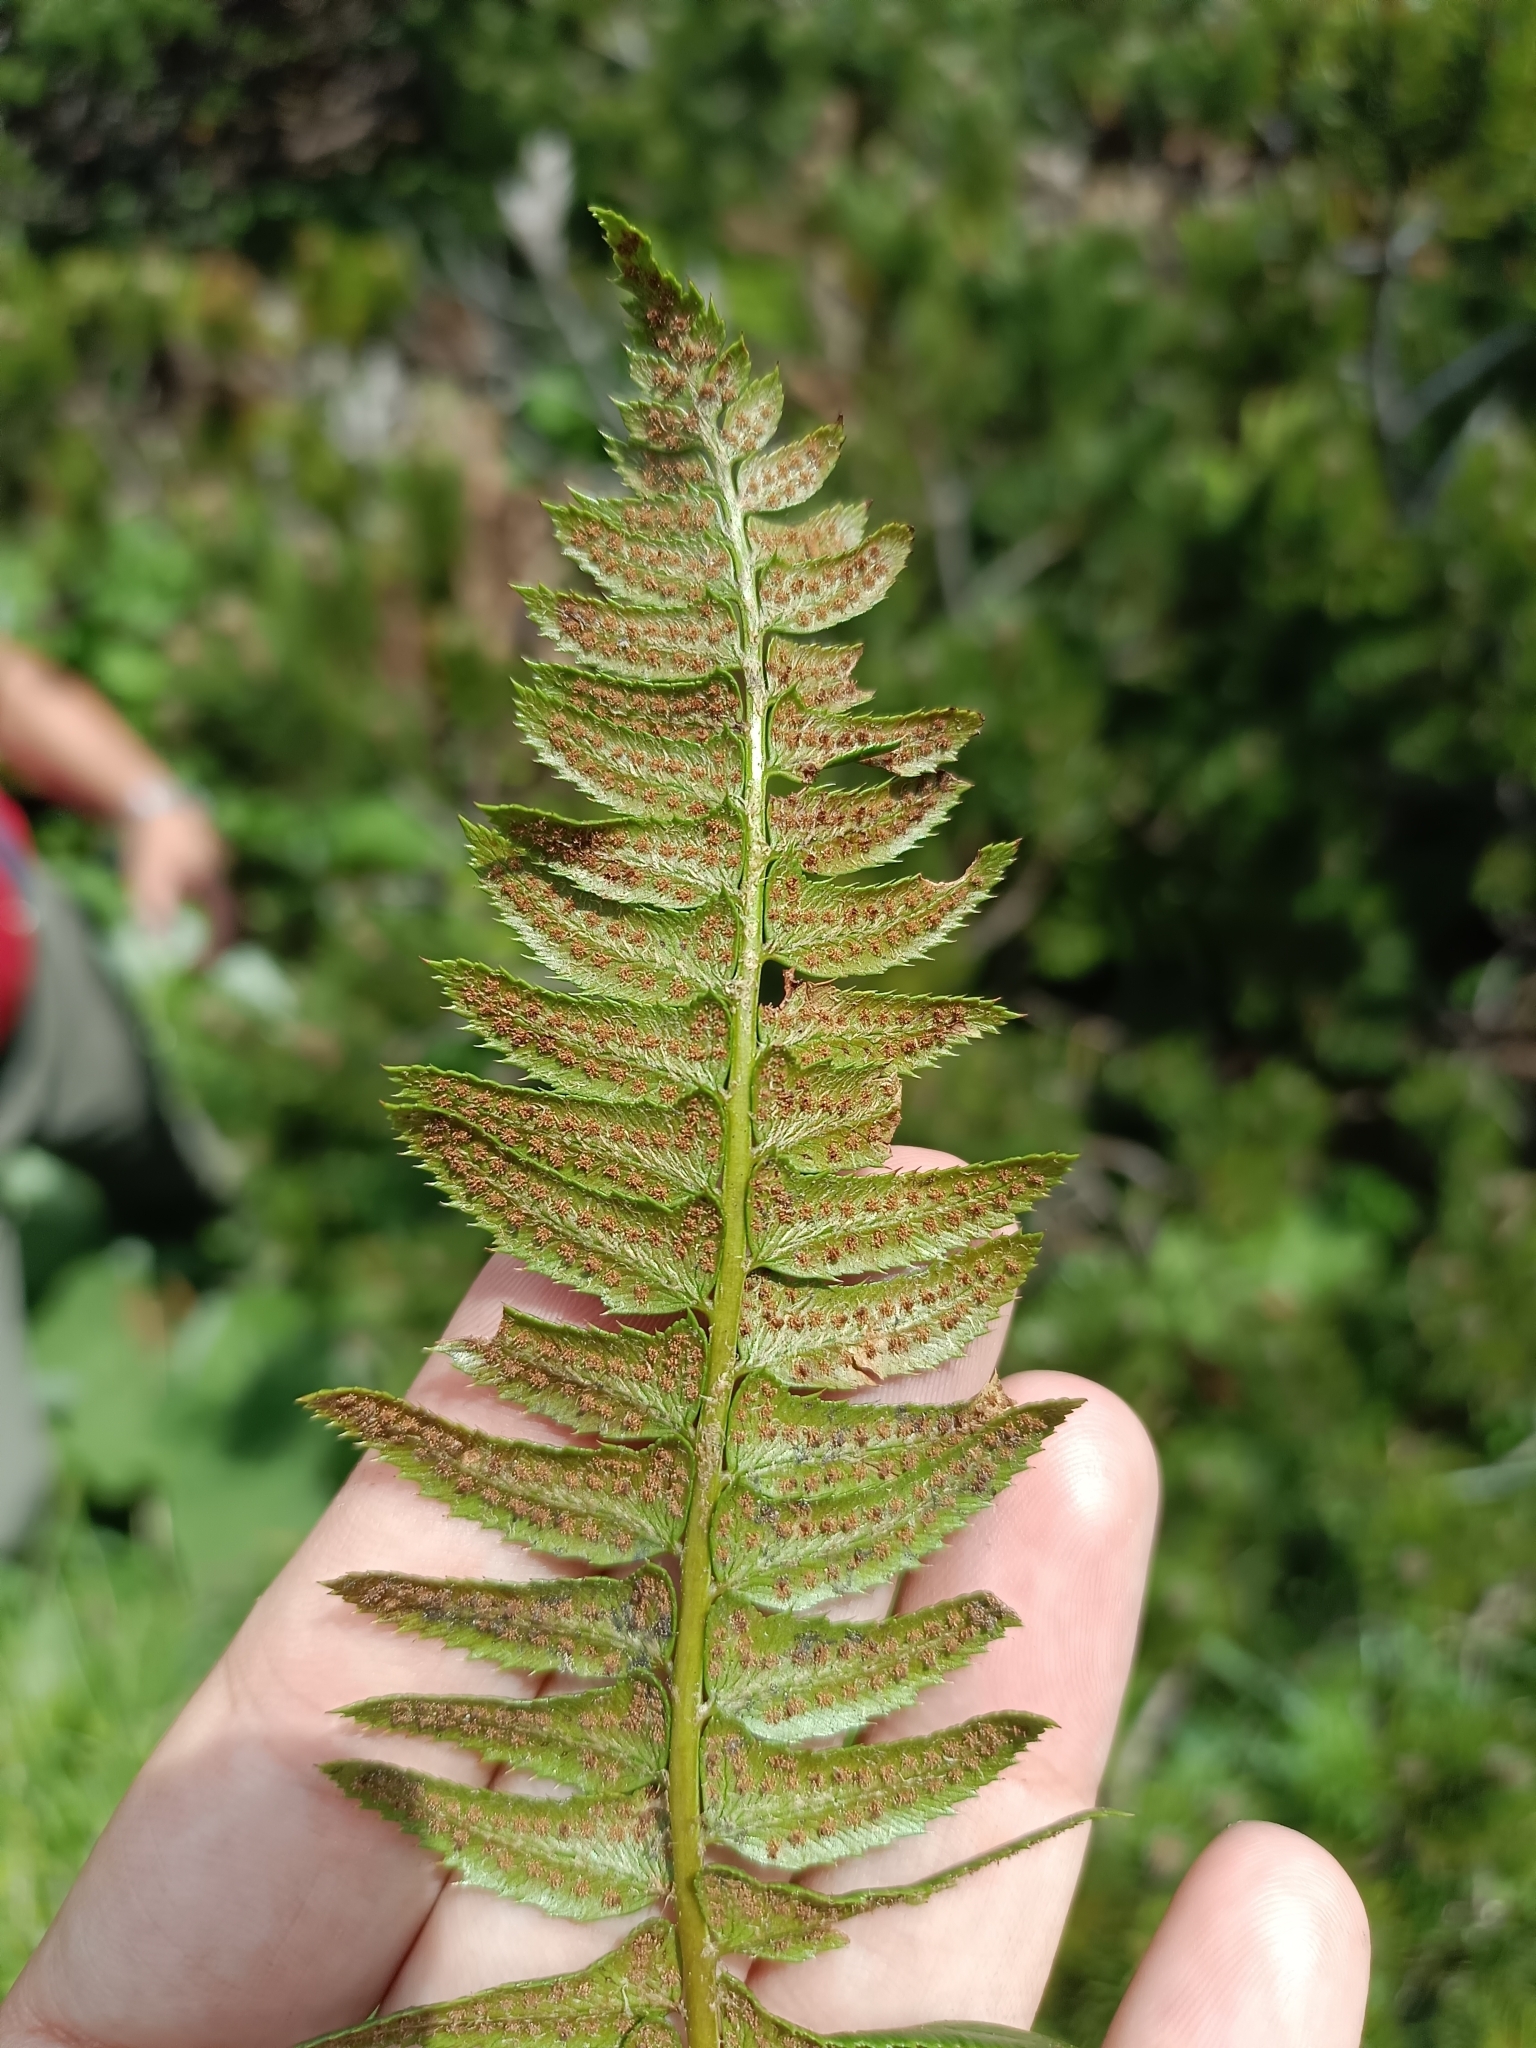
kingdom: Plantae
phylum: Tracheophyta
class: Polypodiopsida
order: Polypodiales
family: Dryopteridaceae
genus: Polystichum
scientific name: Polystichum lonchitis
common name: Holly fern
